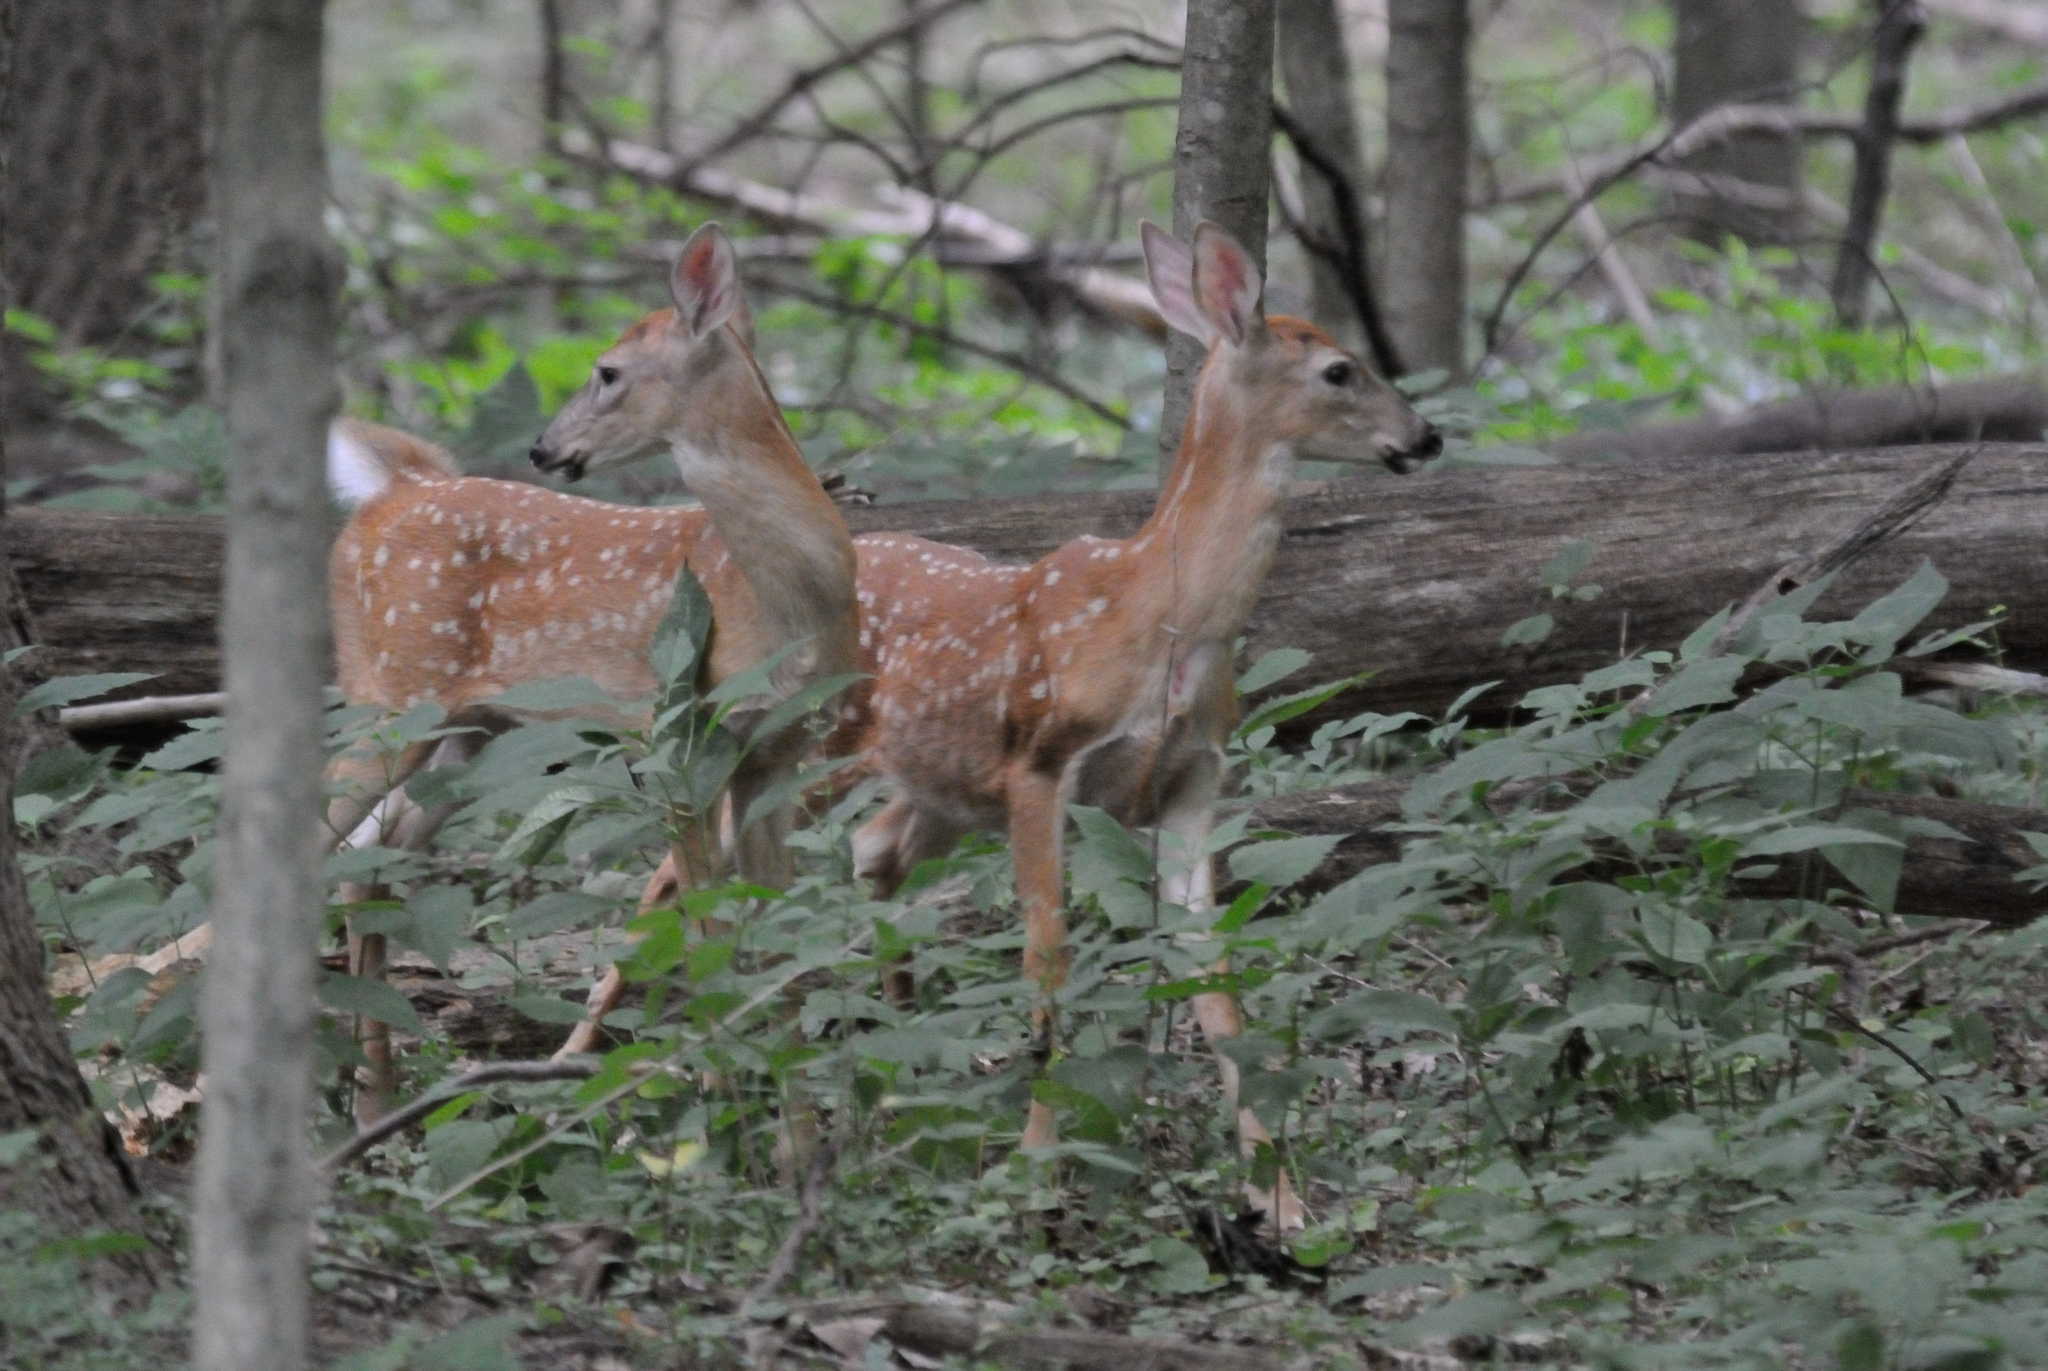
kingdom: Animalia
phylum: Chordata
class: Mammalia
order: Artiodactyla
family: Cervidae
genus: Odocoileus
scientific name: Odocoileus virginianus
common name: White-tailed deer
